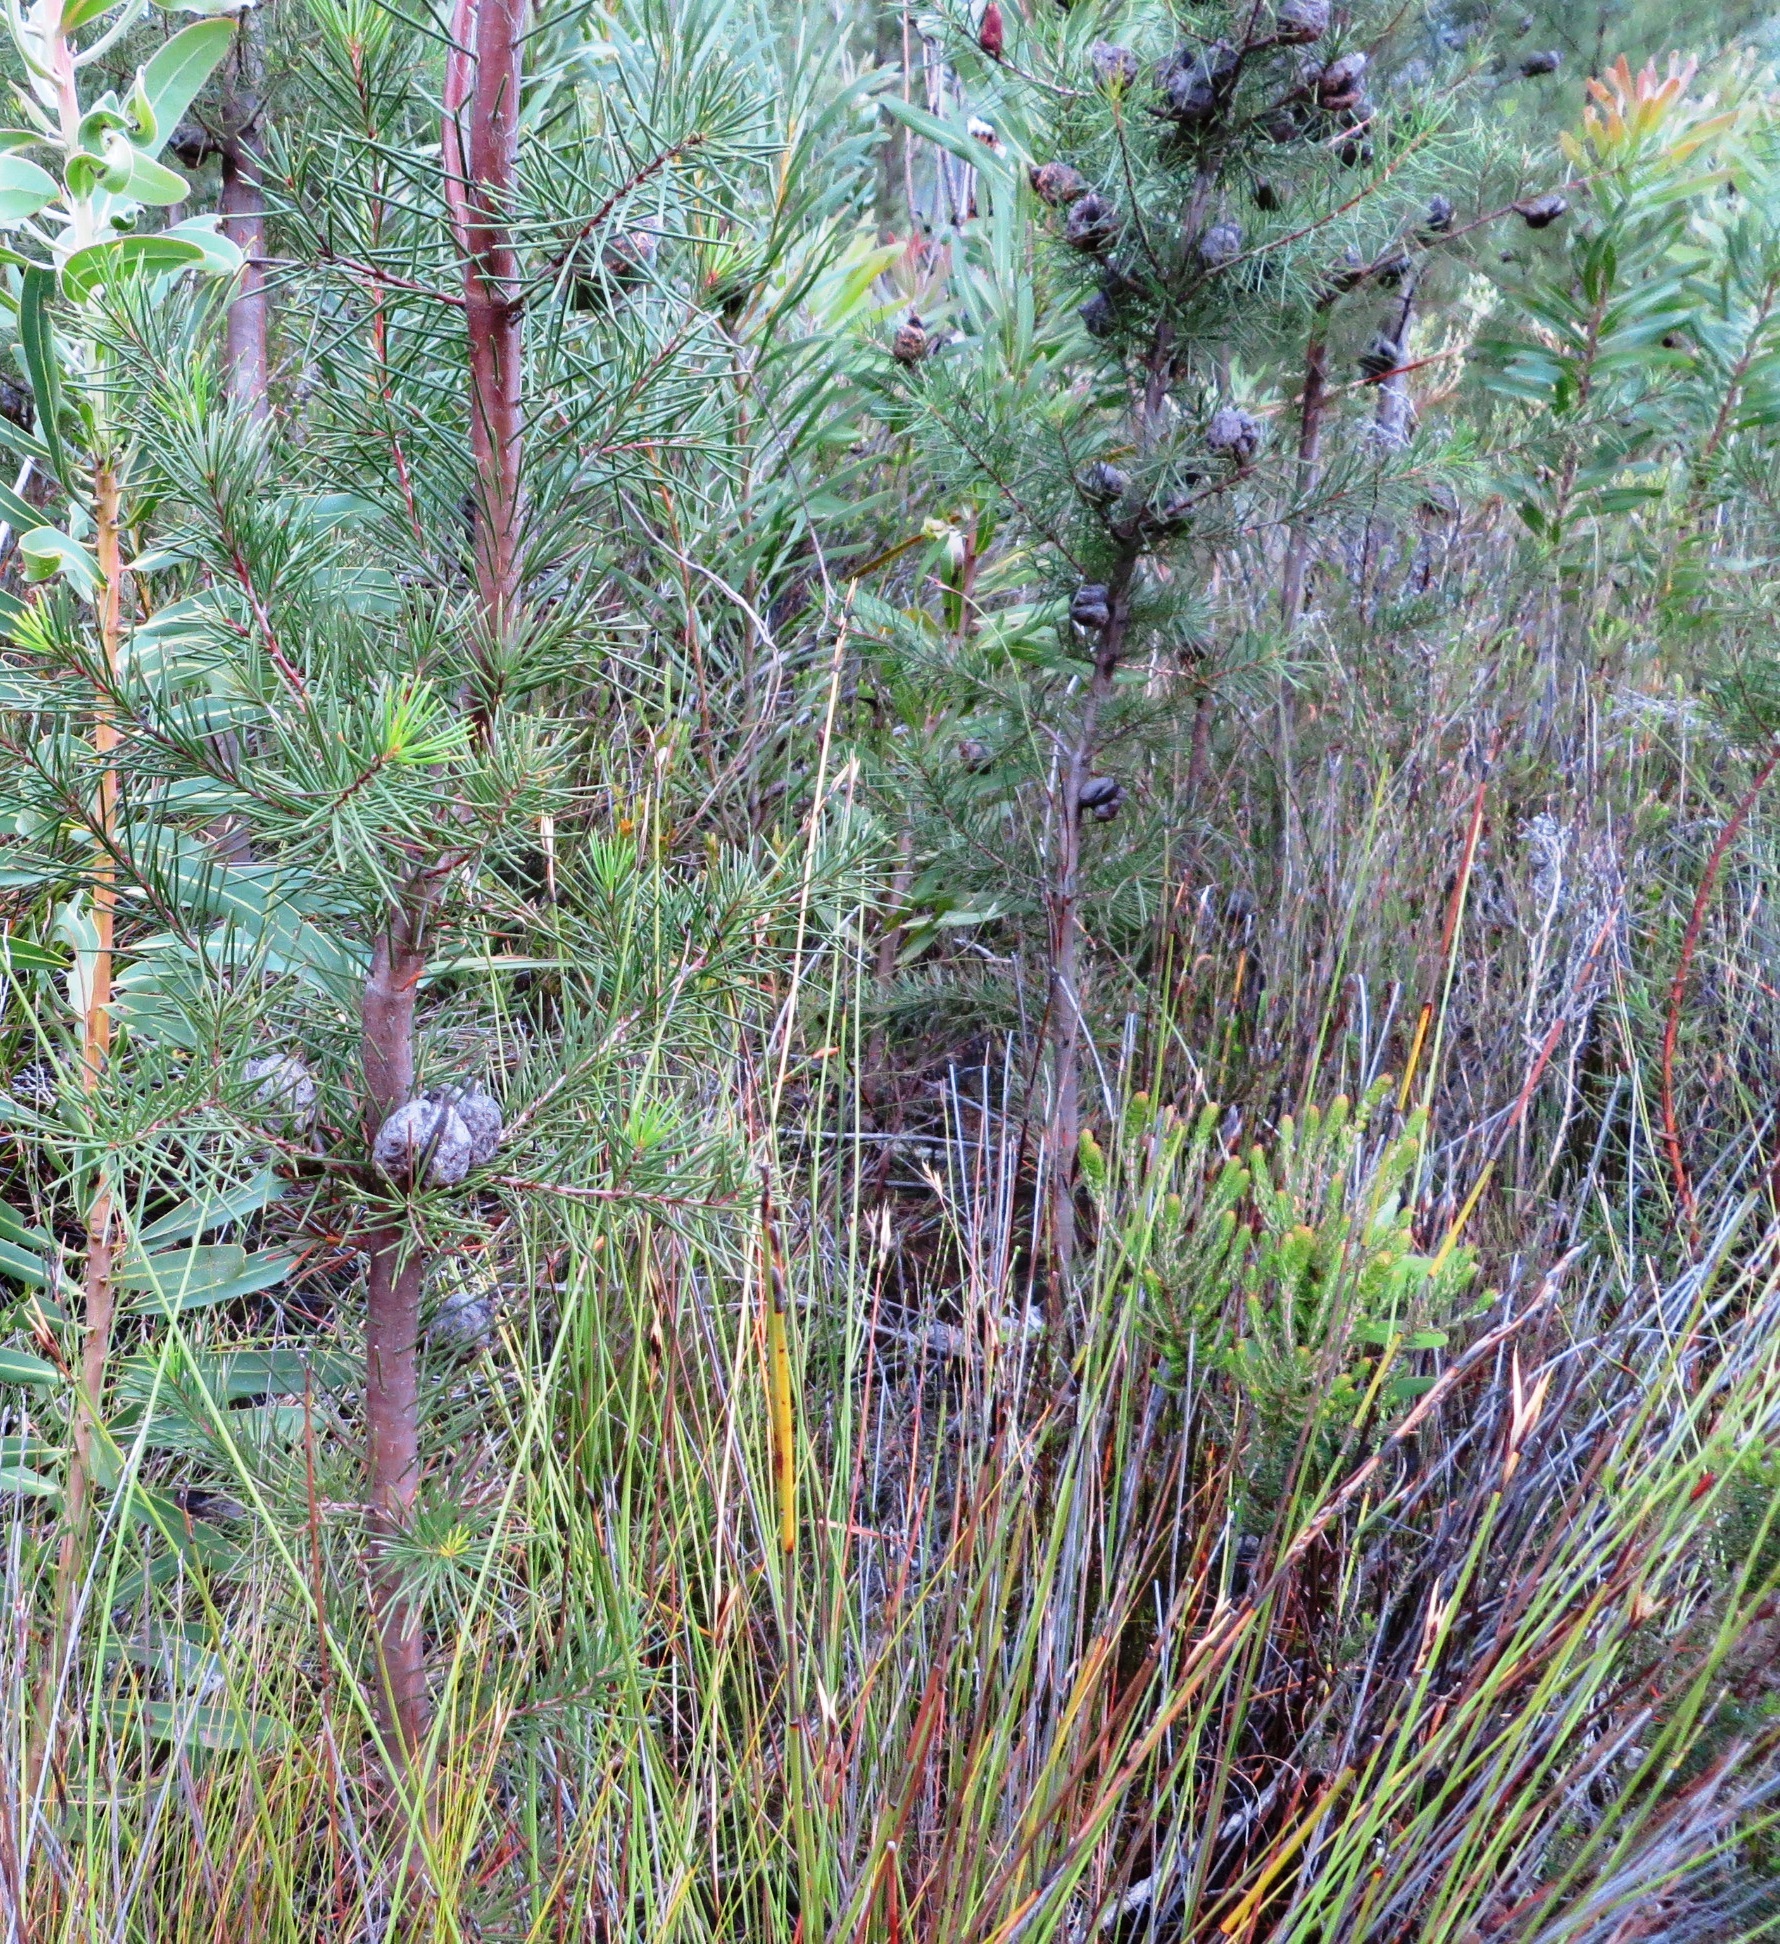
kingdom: Plantae
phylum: Tracheophyta
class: Magnoliopsida
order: Proteales
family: Proteaceae
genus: Hakea
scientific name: Hakea sericea
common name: Needle bush
